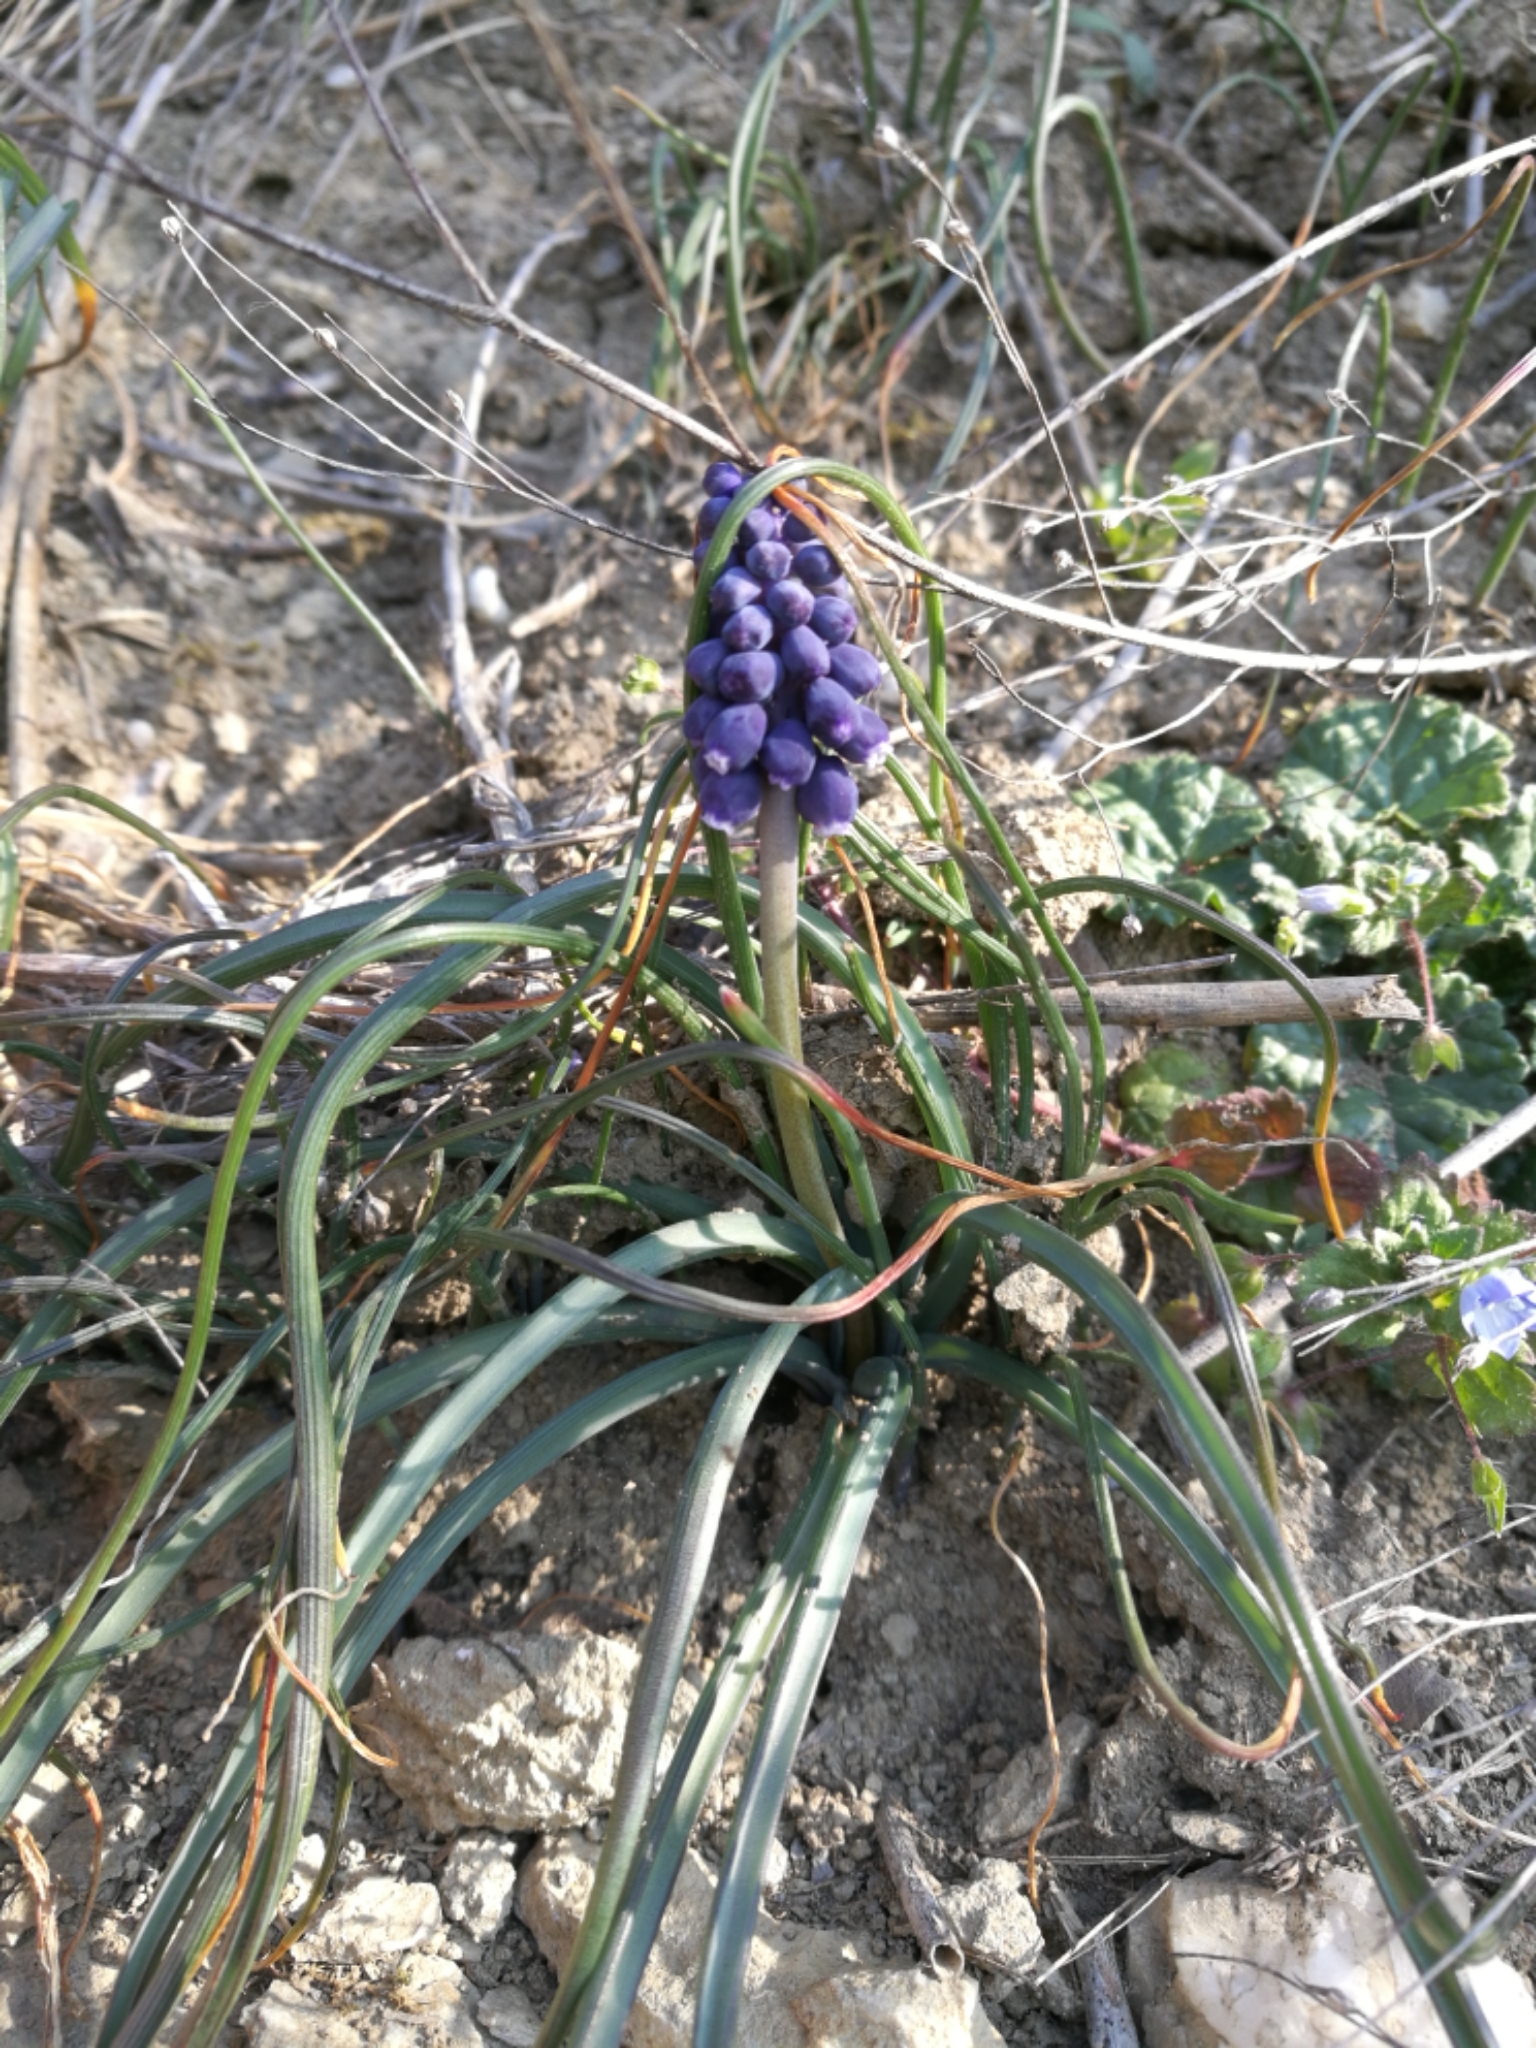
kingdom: Plantae
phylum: Tracheophyta
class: Liliopsida
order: Asparagales
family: Asparagaceae
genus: Muscari
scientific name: Muscari neglectum
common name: Grape-hyacinth
